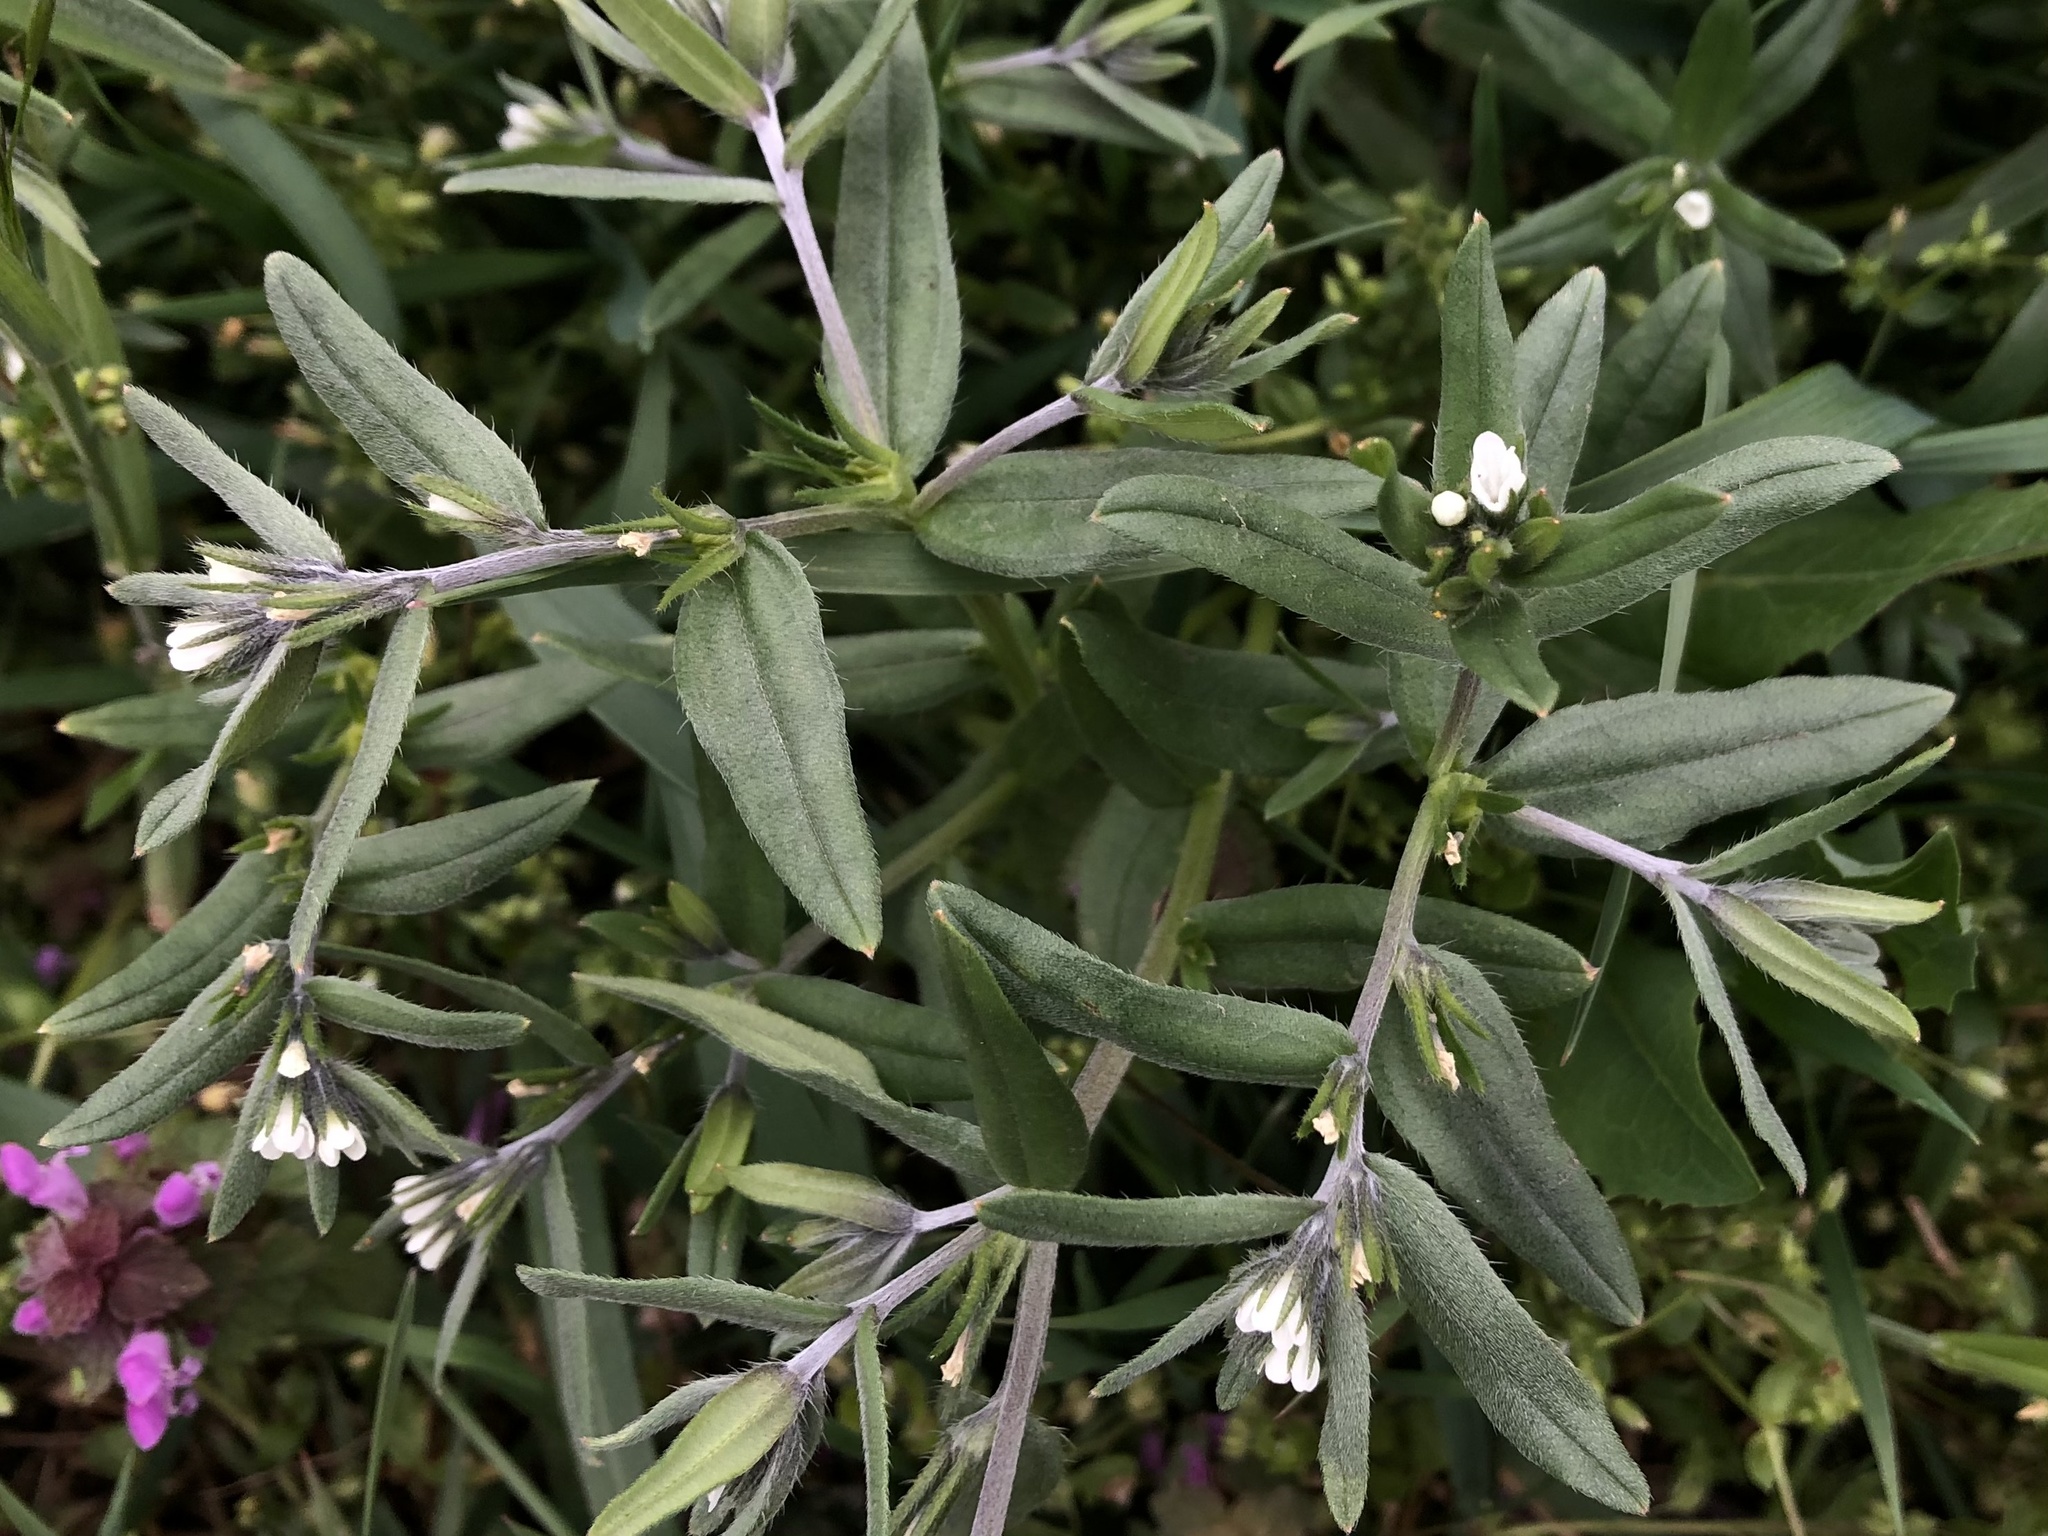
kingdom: Plantae
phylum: Tracheophyta
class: Magnoliopsida
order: Boraginales
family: Boraginaceae
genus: Buglossoides
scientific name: Buglossoides arvensis
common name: Corn gromwell
